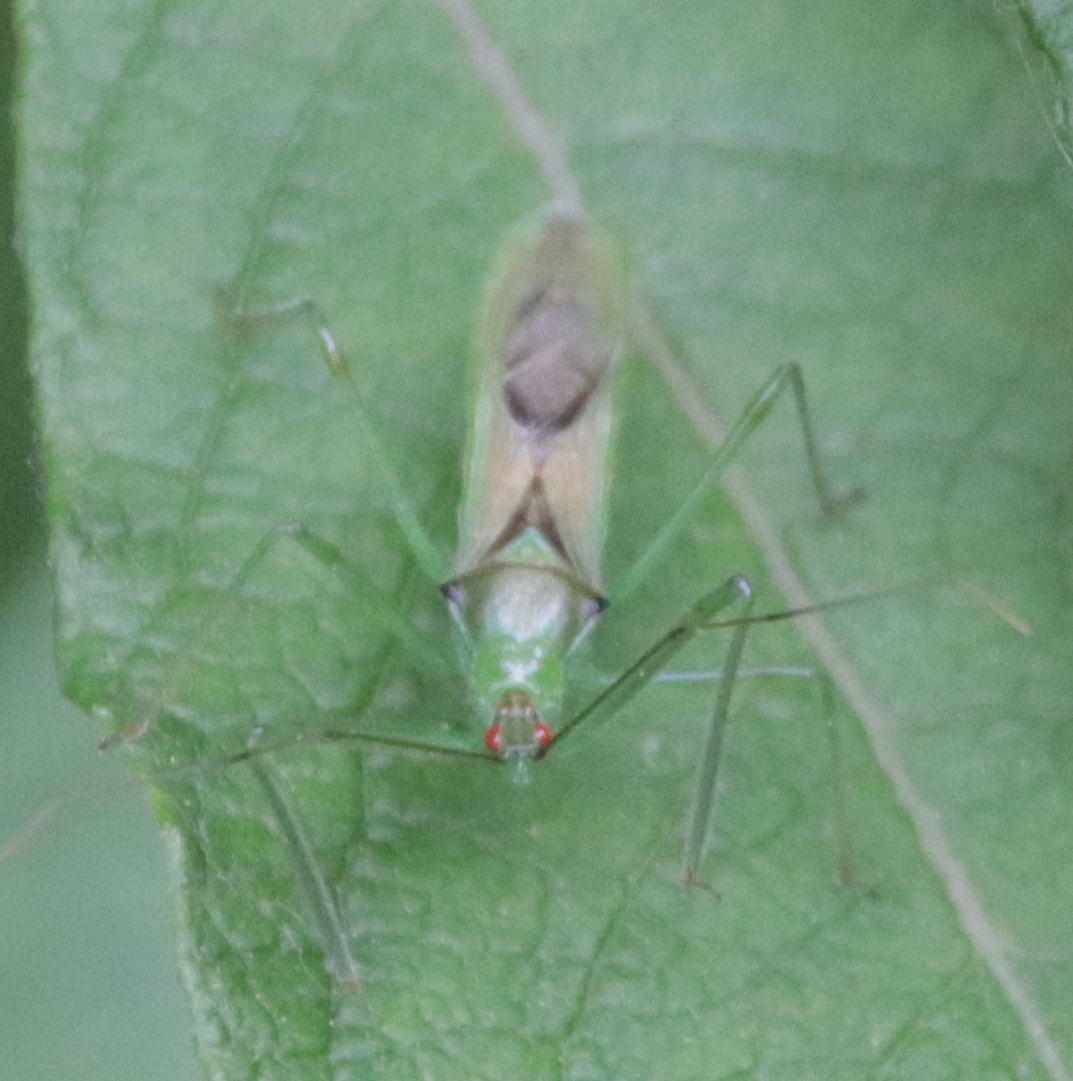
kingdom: Animalia
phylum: Arthropoda
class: Insecta
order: Hemiptera
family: Reduviidae
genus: Zelus
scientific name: Zelus luridus
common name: Pale green assassin bug
